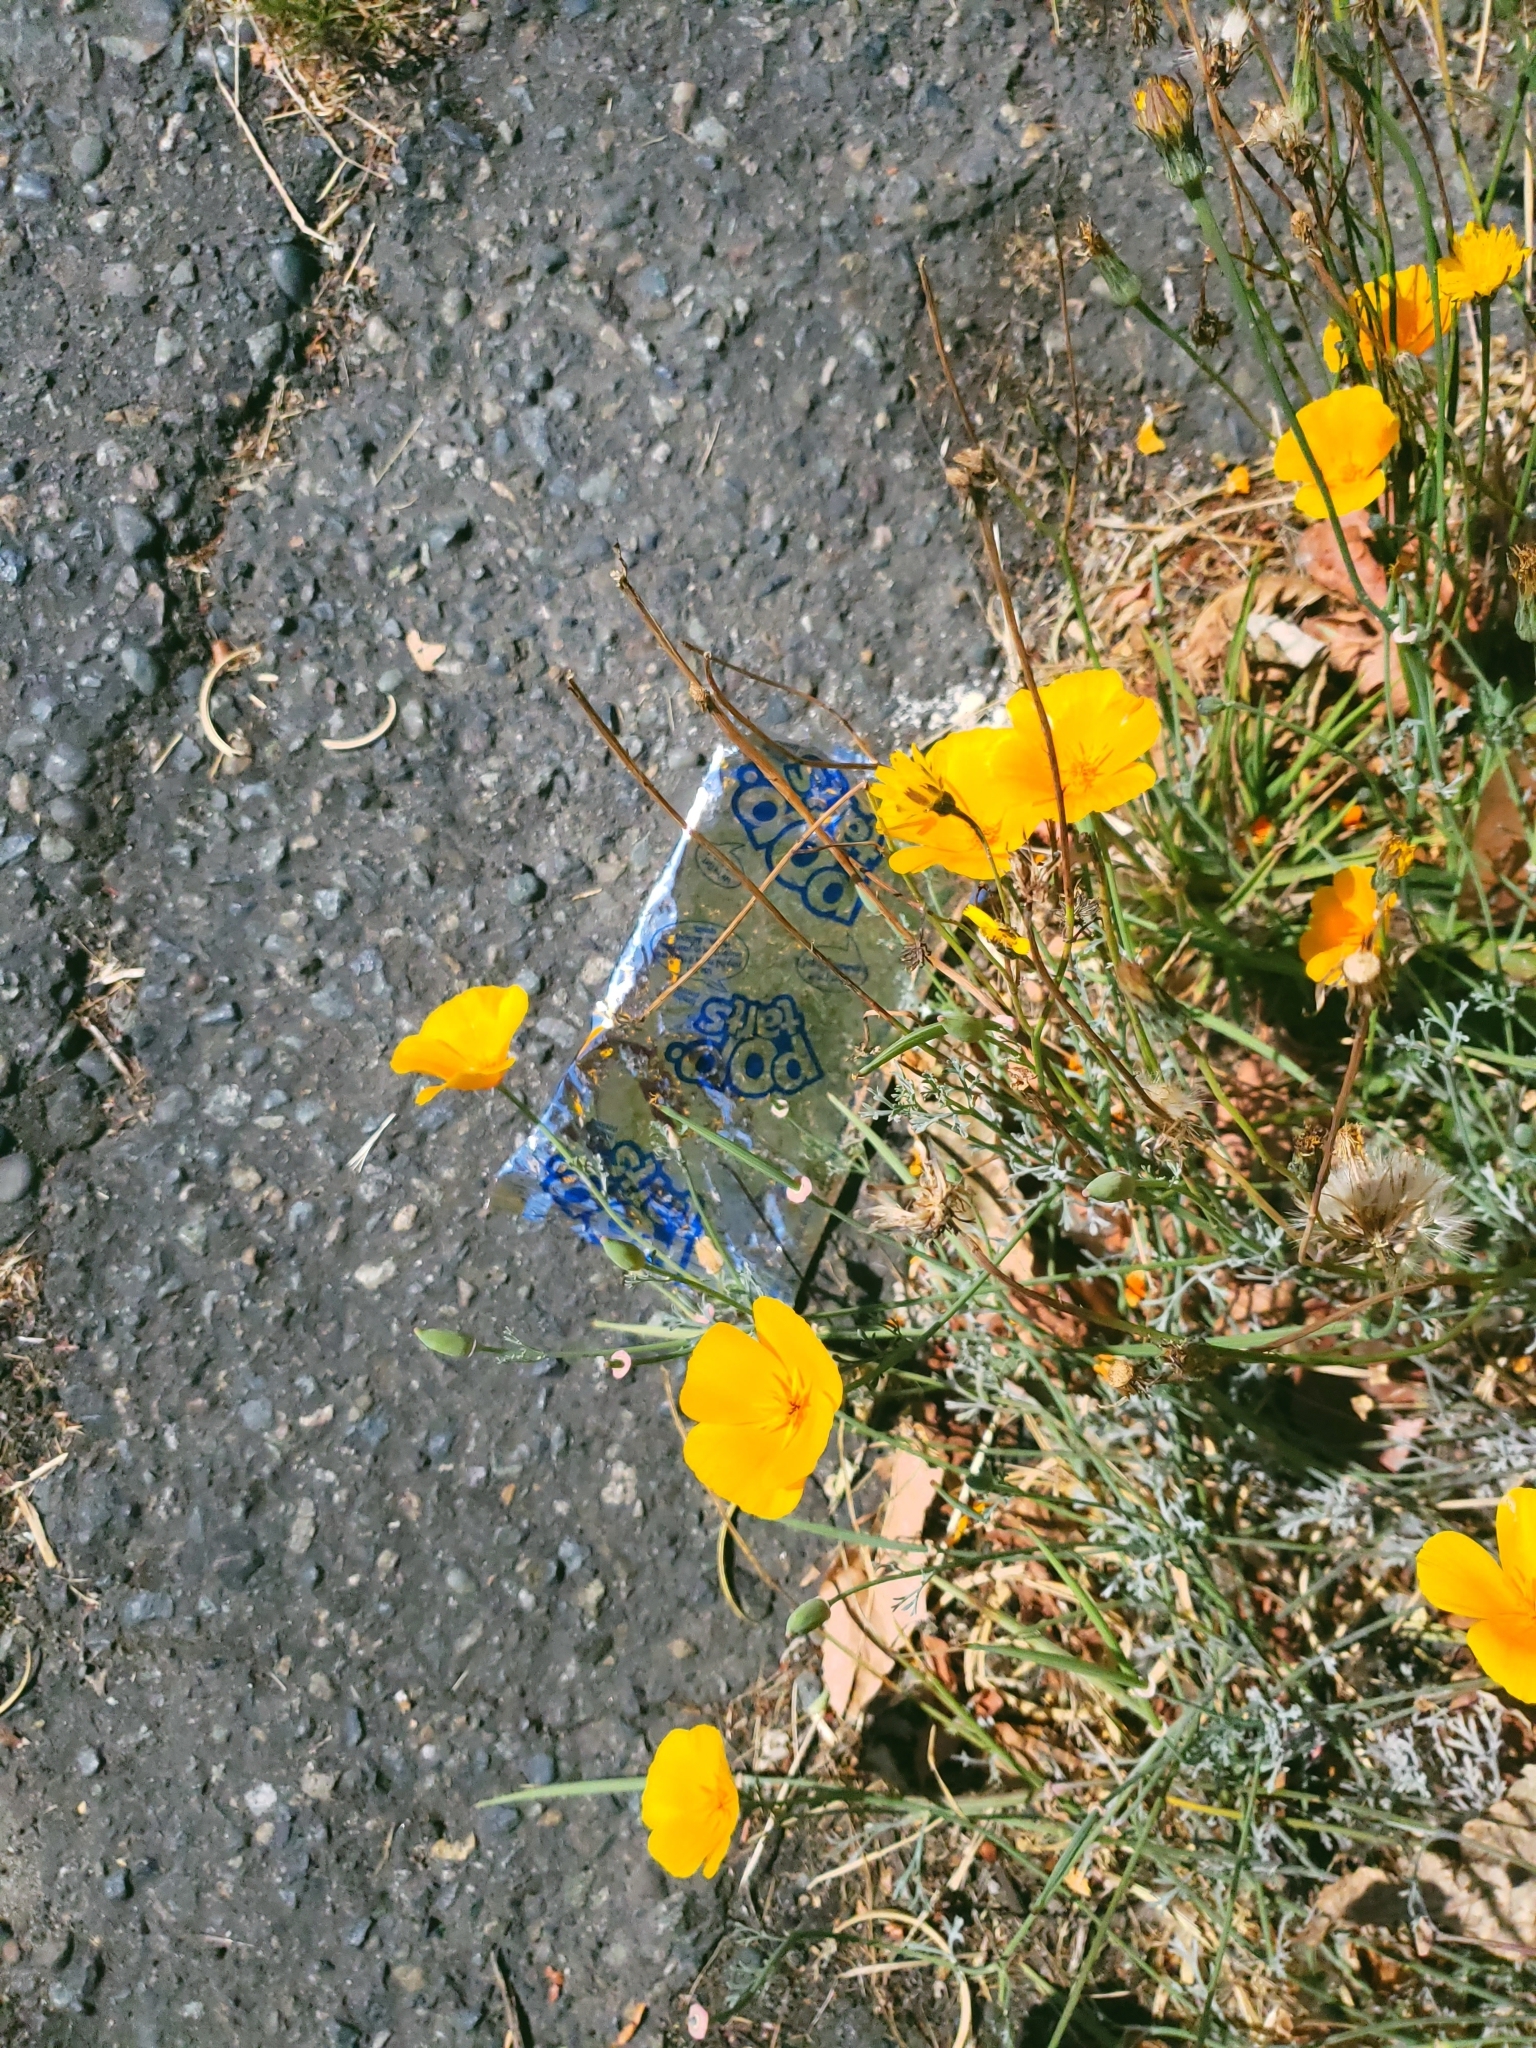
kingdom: Plantae
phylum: Tracheophyta
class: Magnoliopsida
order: Ranunculales
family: Papaveraceae
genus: Eschscholzia
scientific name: Eschscholzia californica
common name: California poppy
